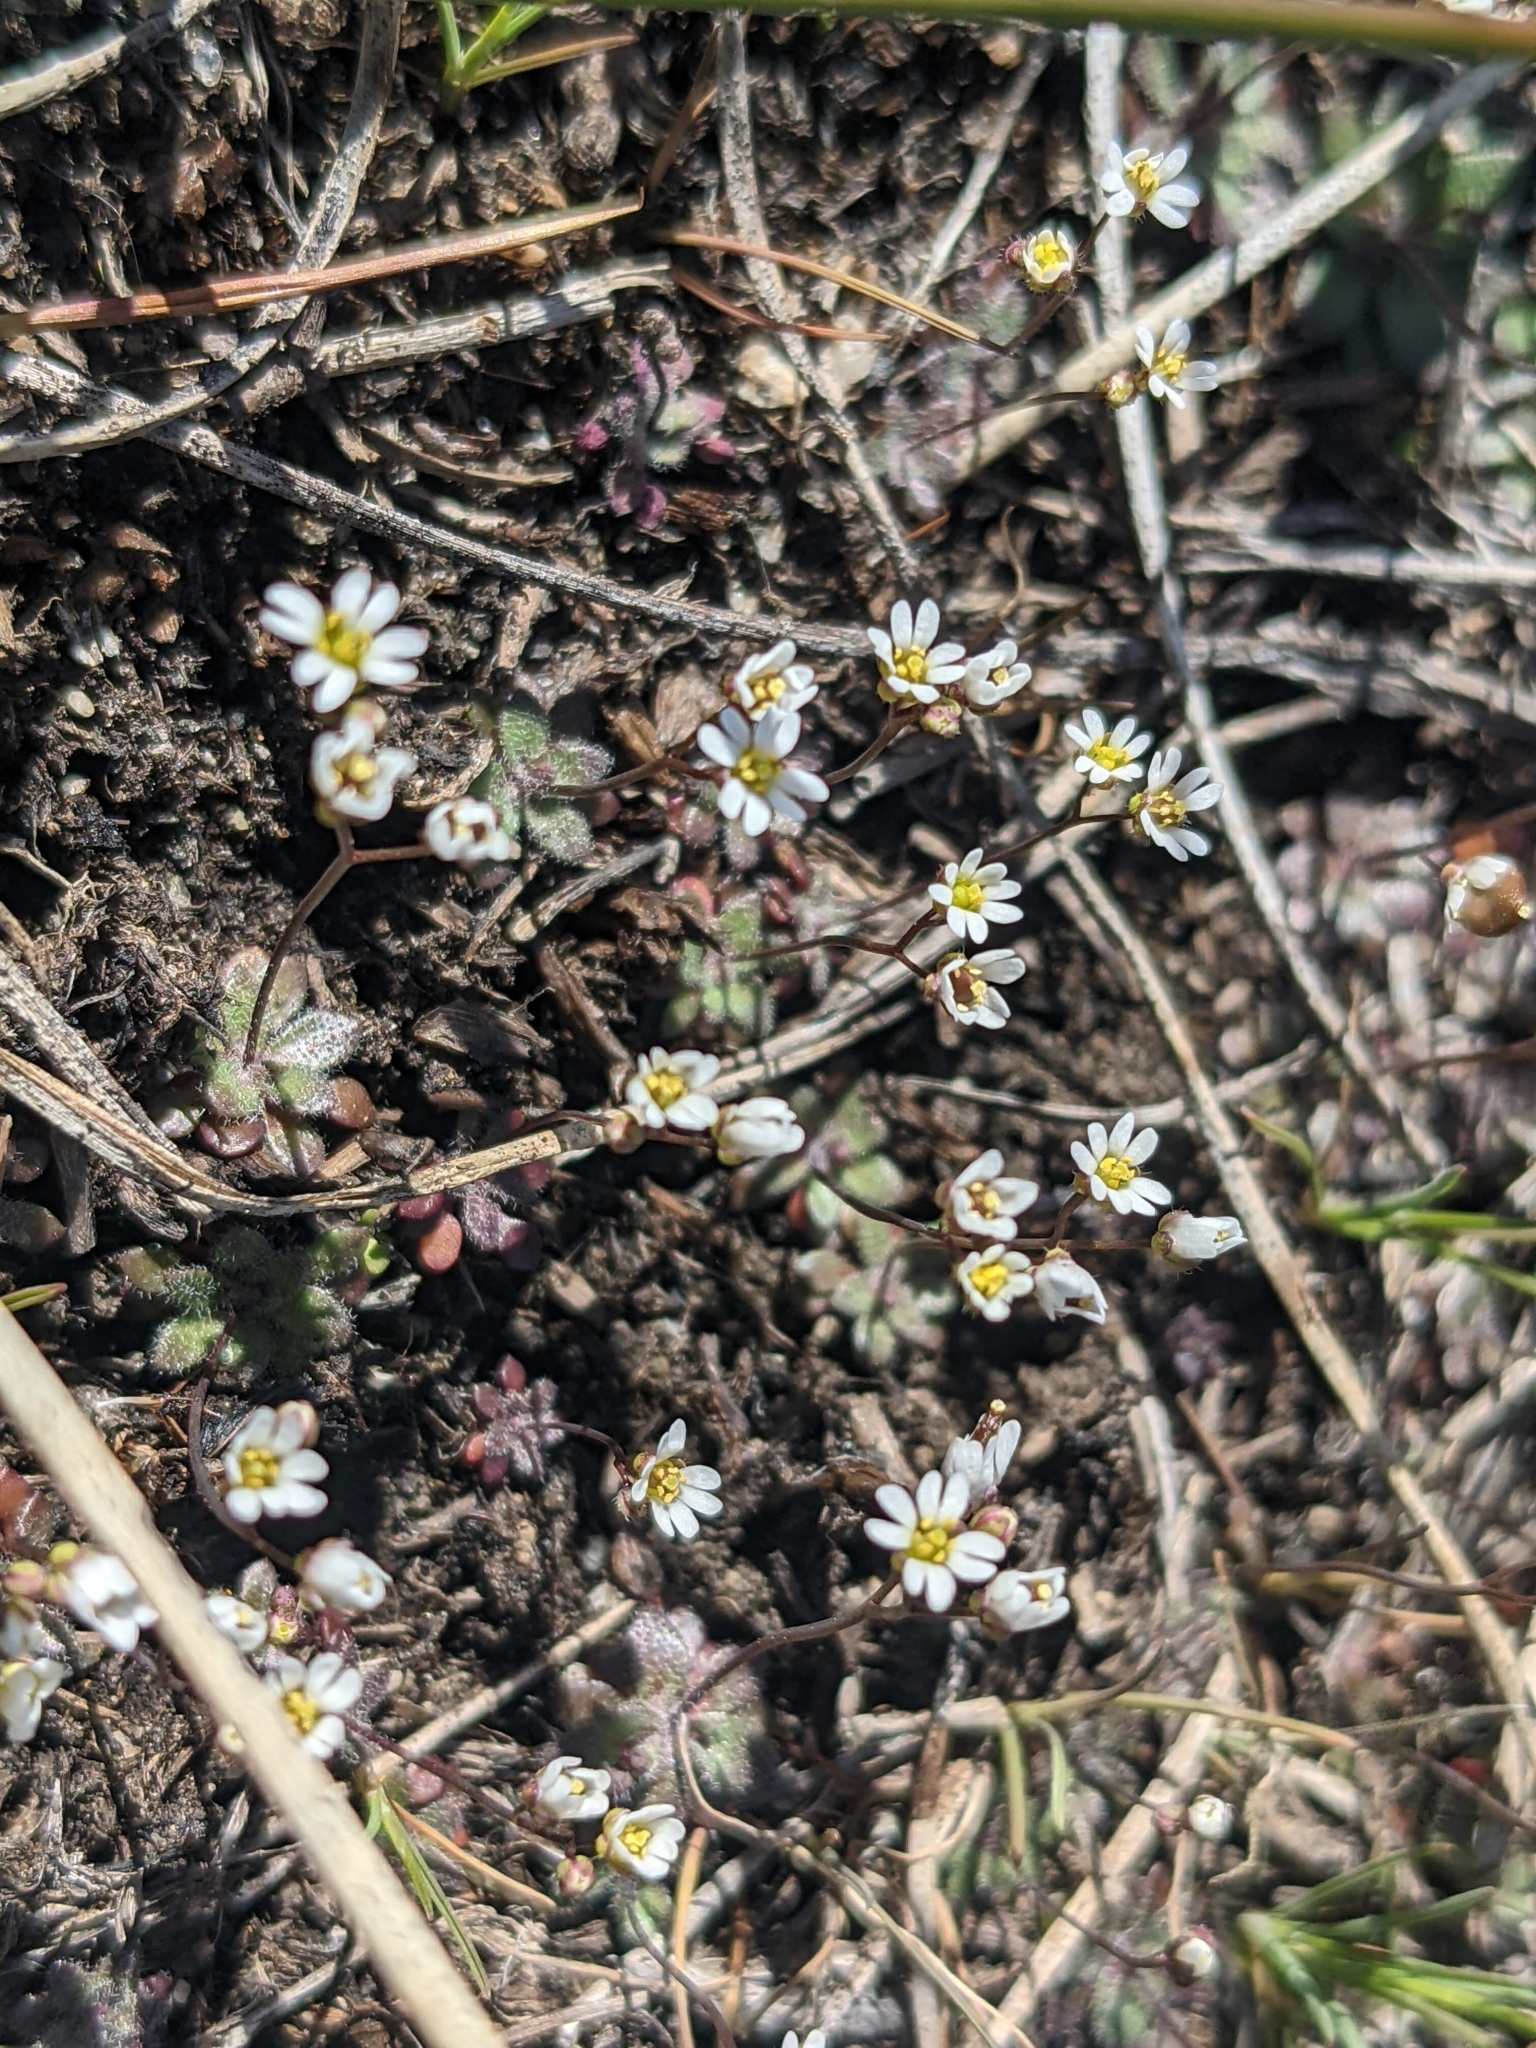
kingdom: Plantae
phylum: Tracheophyta
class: Magnoliopsida
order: Brassicales
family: Brassicaceae
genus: Draba
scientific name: Draba verna
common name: Spring draba
